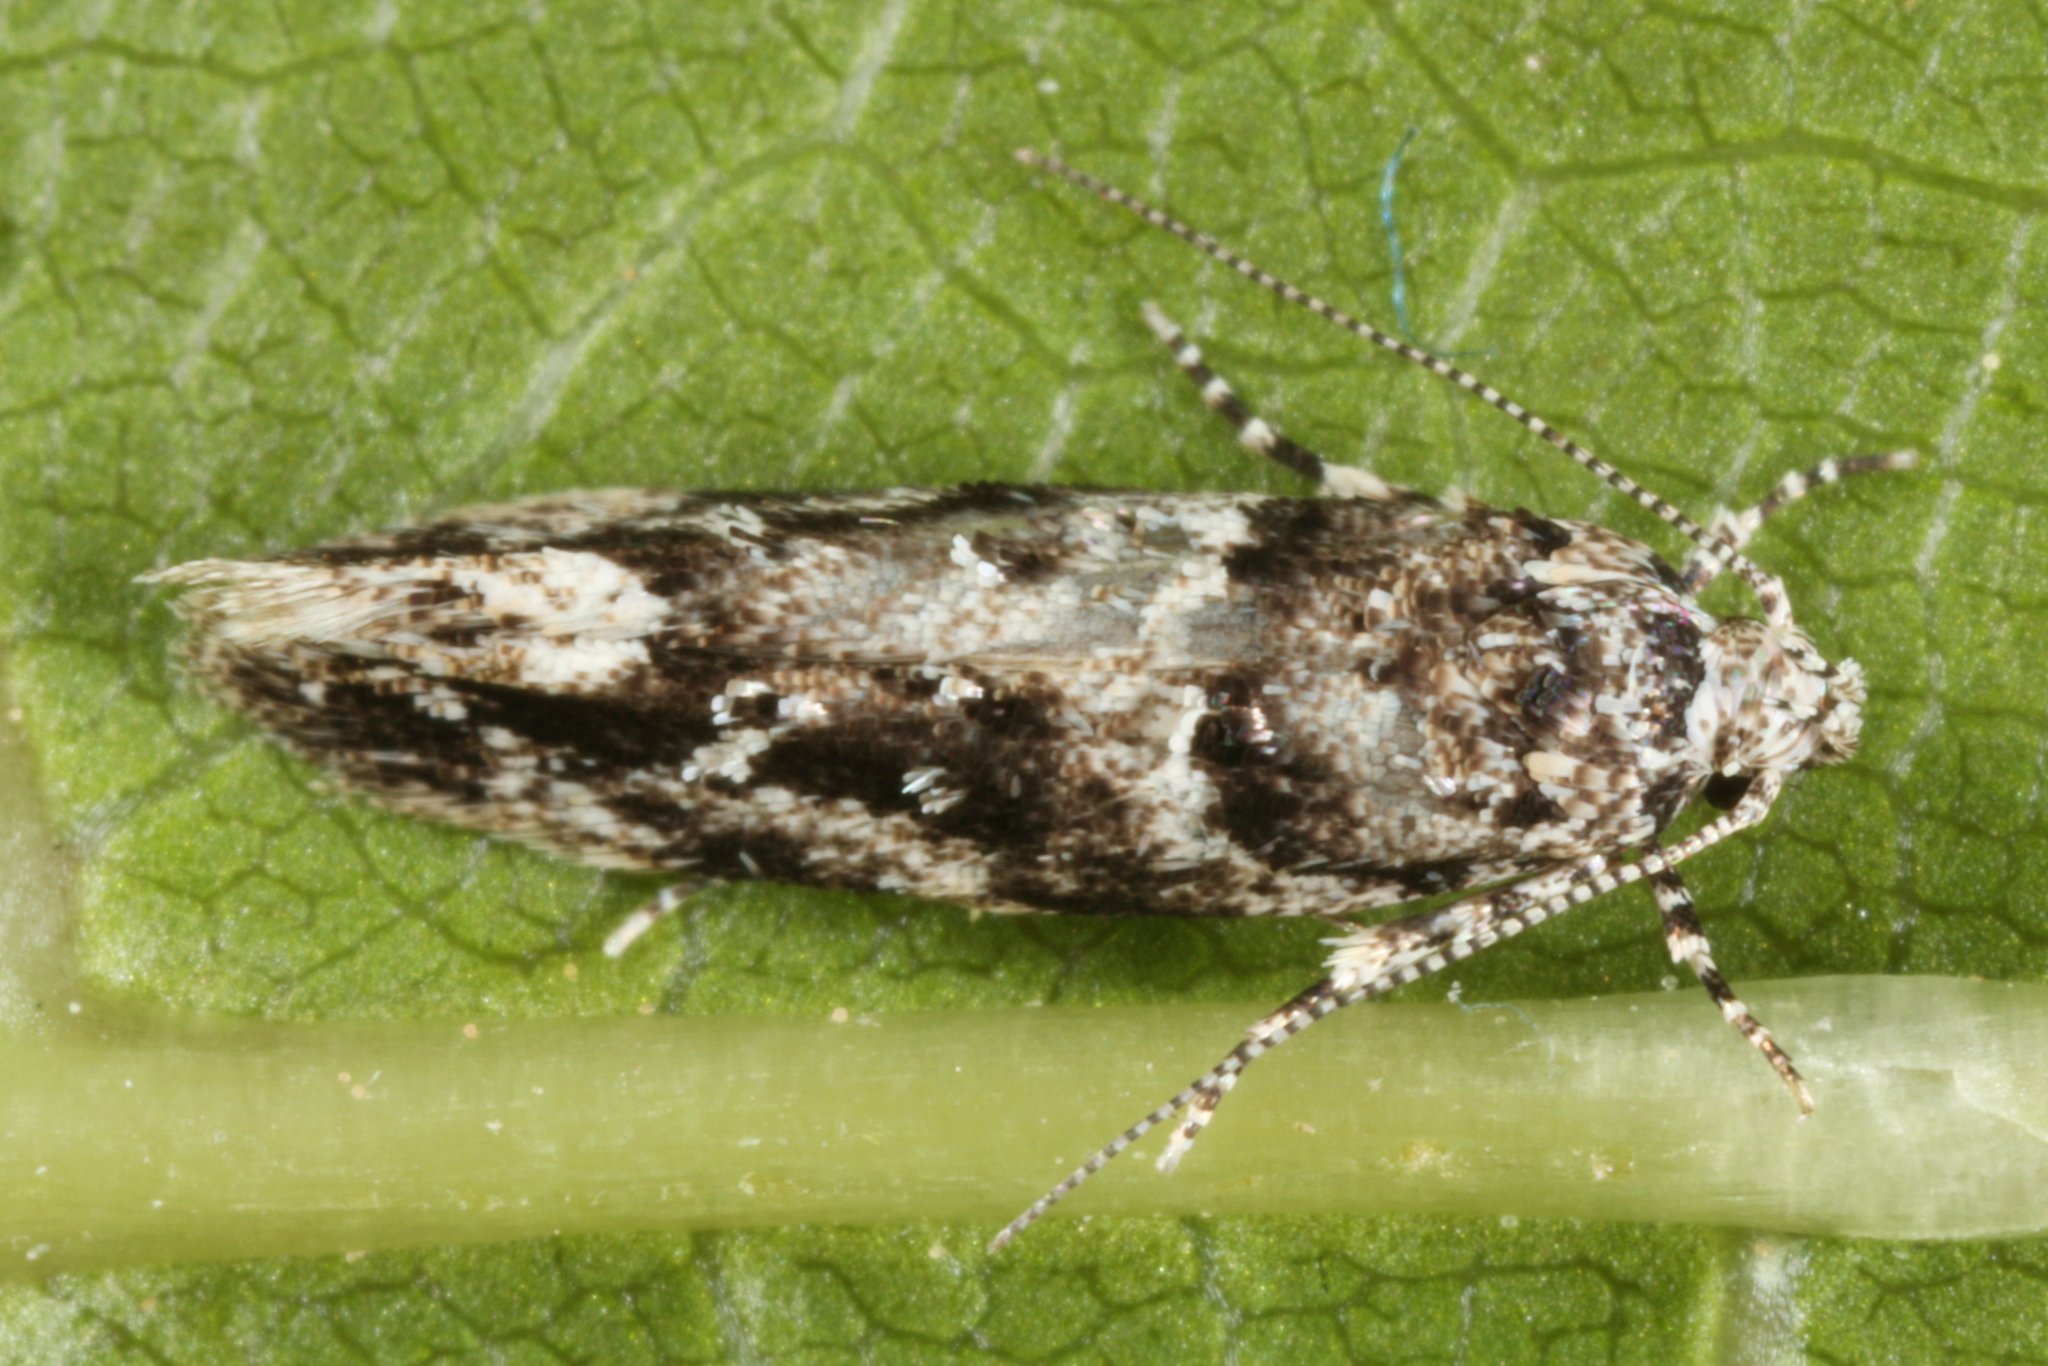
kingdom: Animalia
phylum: Arthropoda
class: Insecta
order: Lepidoptera
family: Gelechiidae
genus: Recurvaria
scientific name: Recurvaria nanella
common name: Gelechiid moth
